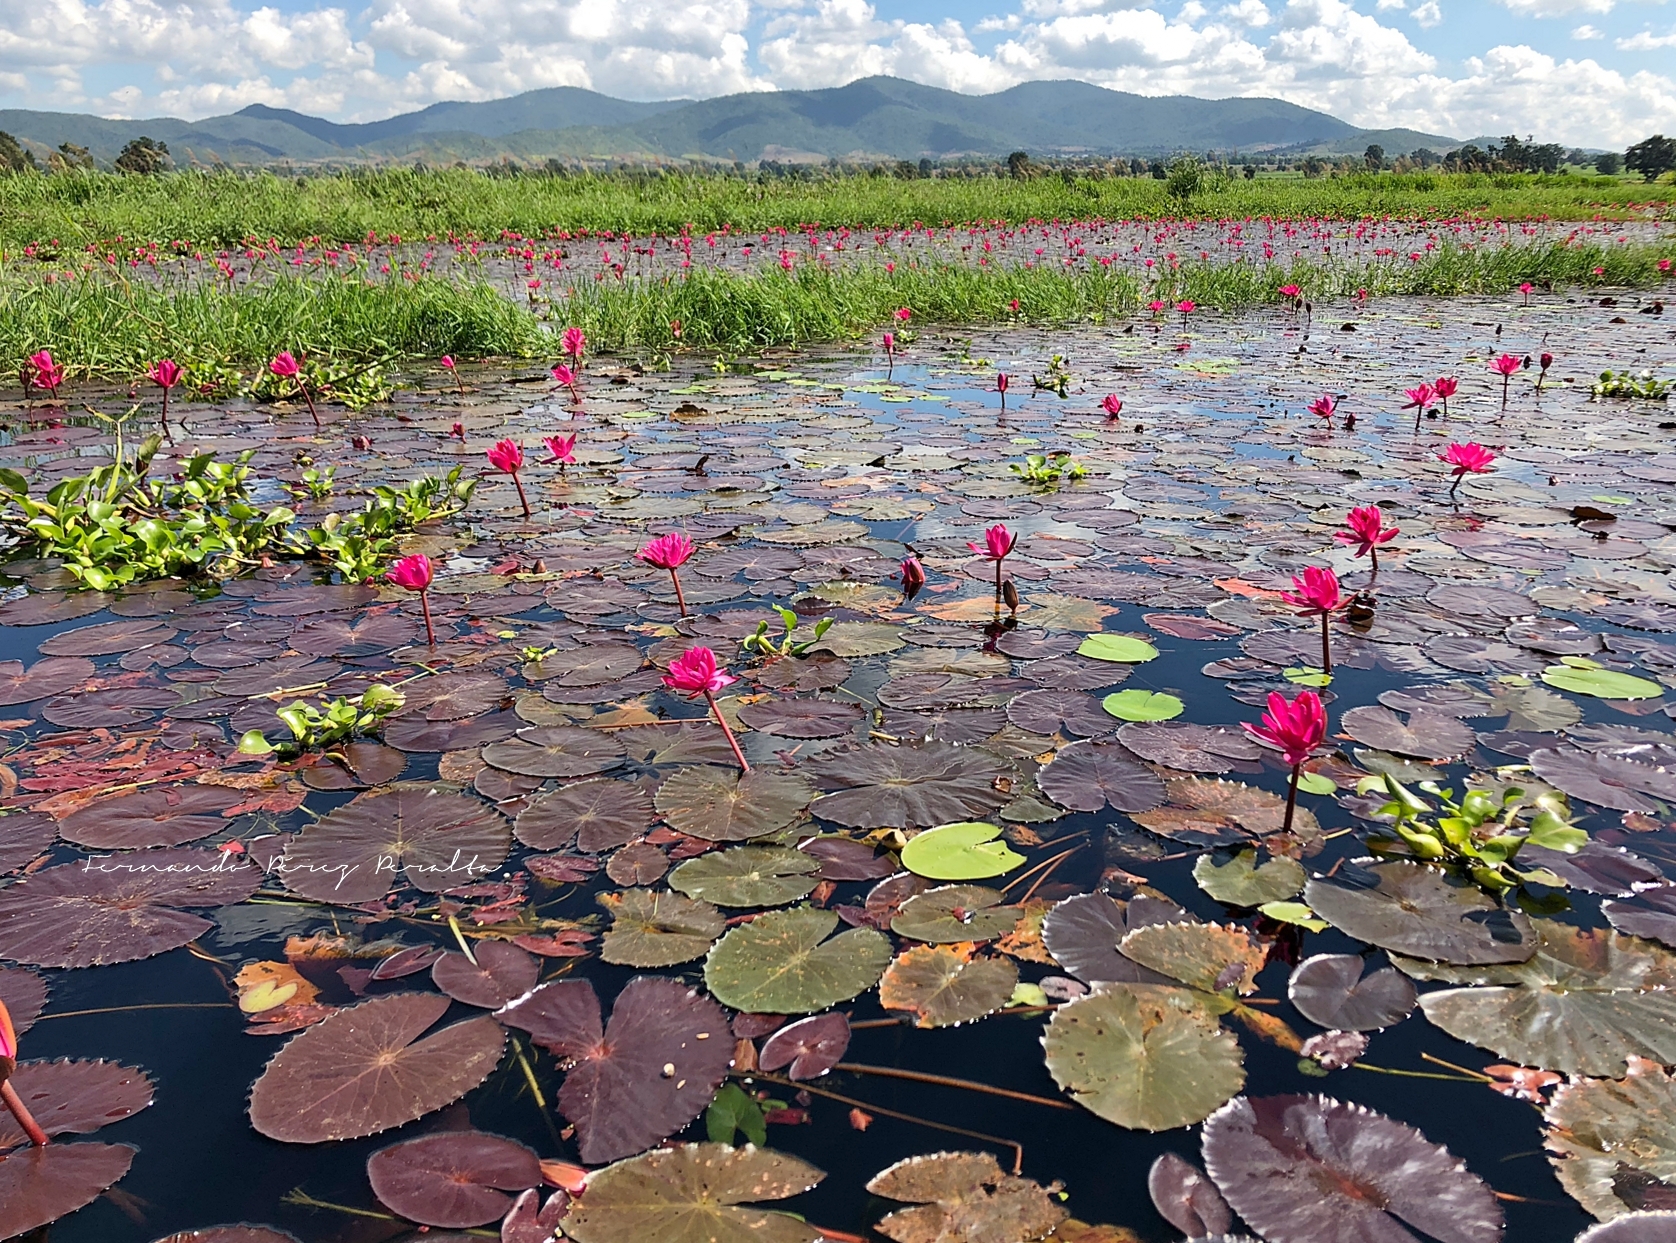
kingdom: Plantae
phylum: Tracheophyta
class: Magnoliopsida
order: Nymphaeales
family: Nymphaeaceae
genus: Nymphaea
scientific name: Nymphaea rubra
